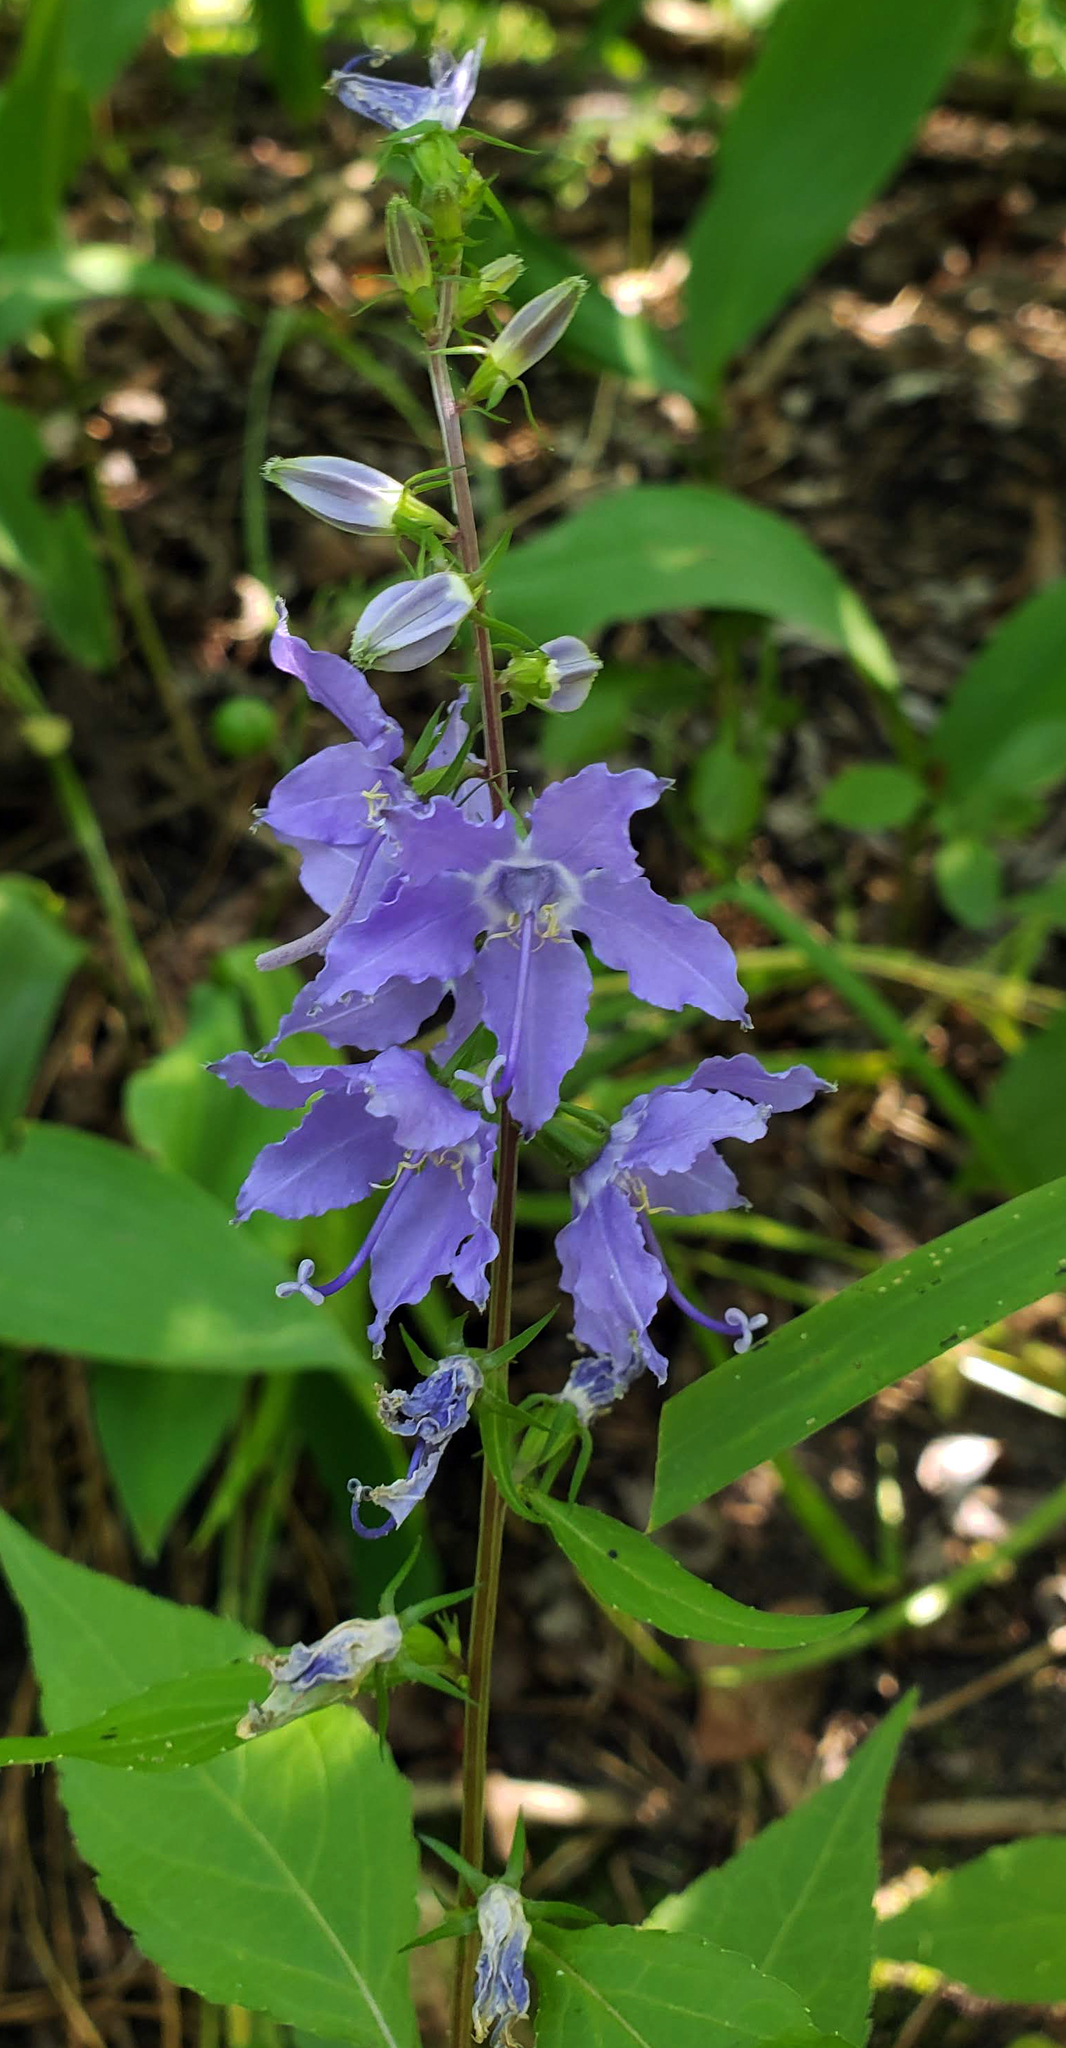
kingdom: Plantae
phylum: Tracheophyta
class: Magnoliopsida
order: Asterales
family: Campanulaceae
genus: Campanulastrum
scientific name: Campanulastrum americanum
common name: American bellflower
